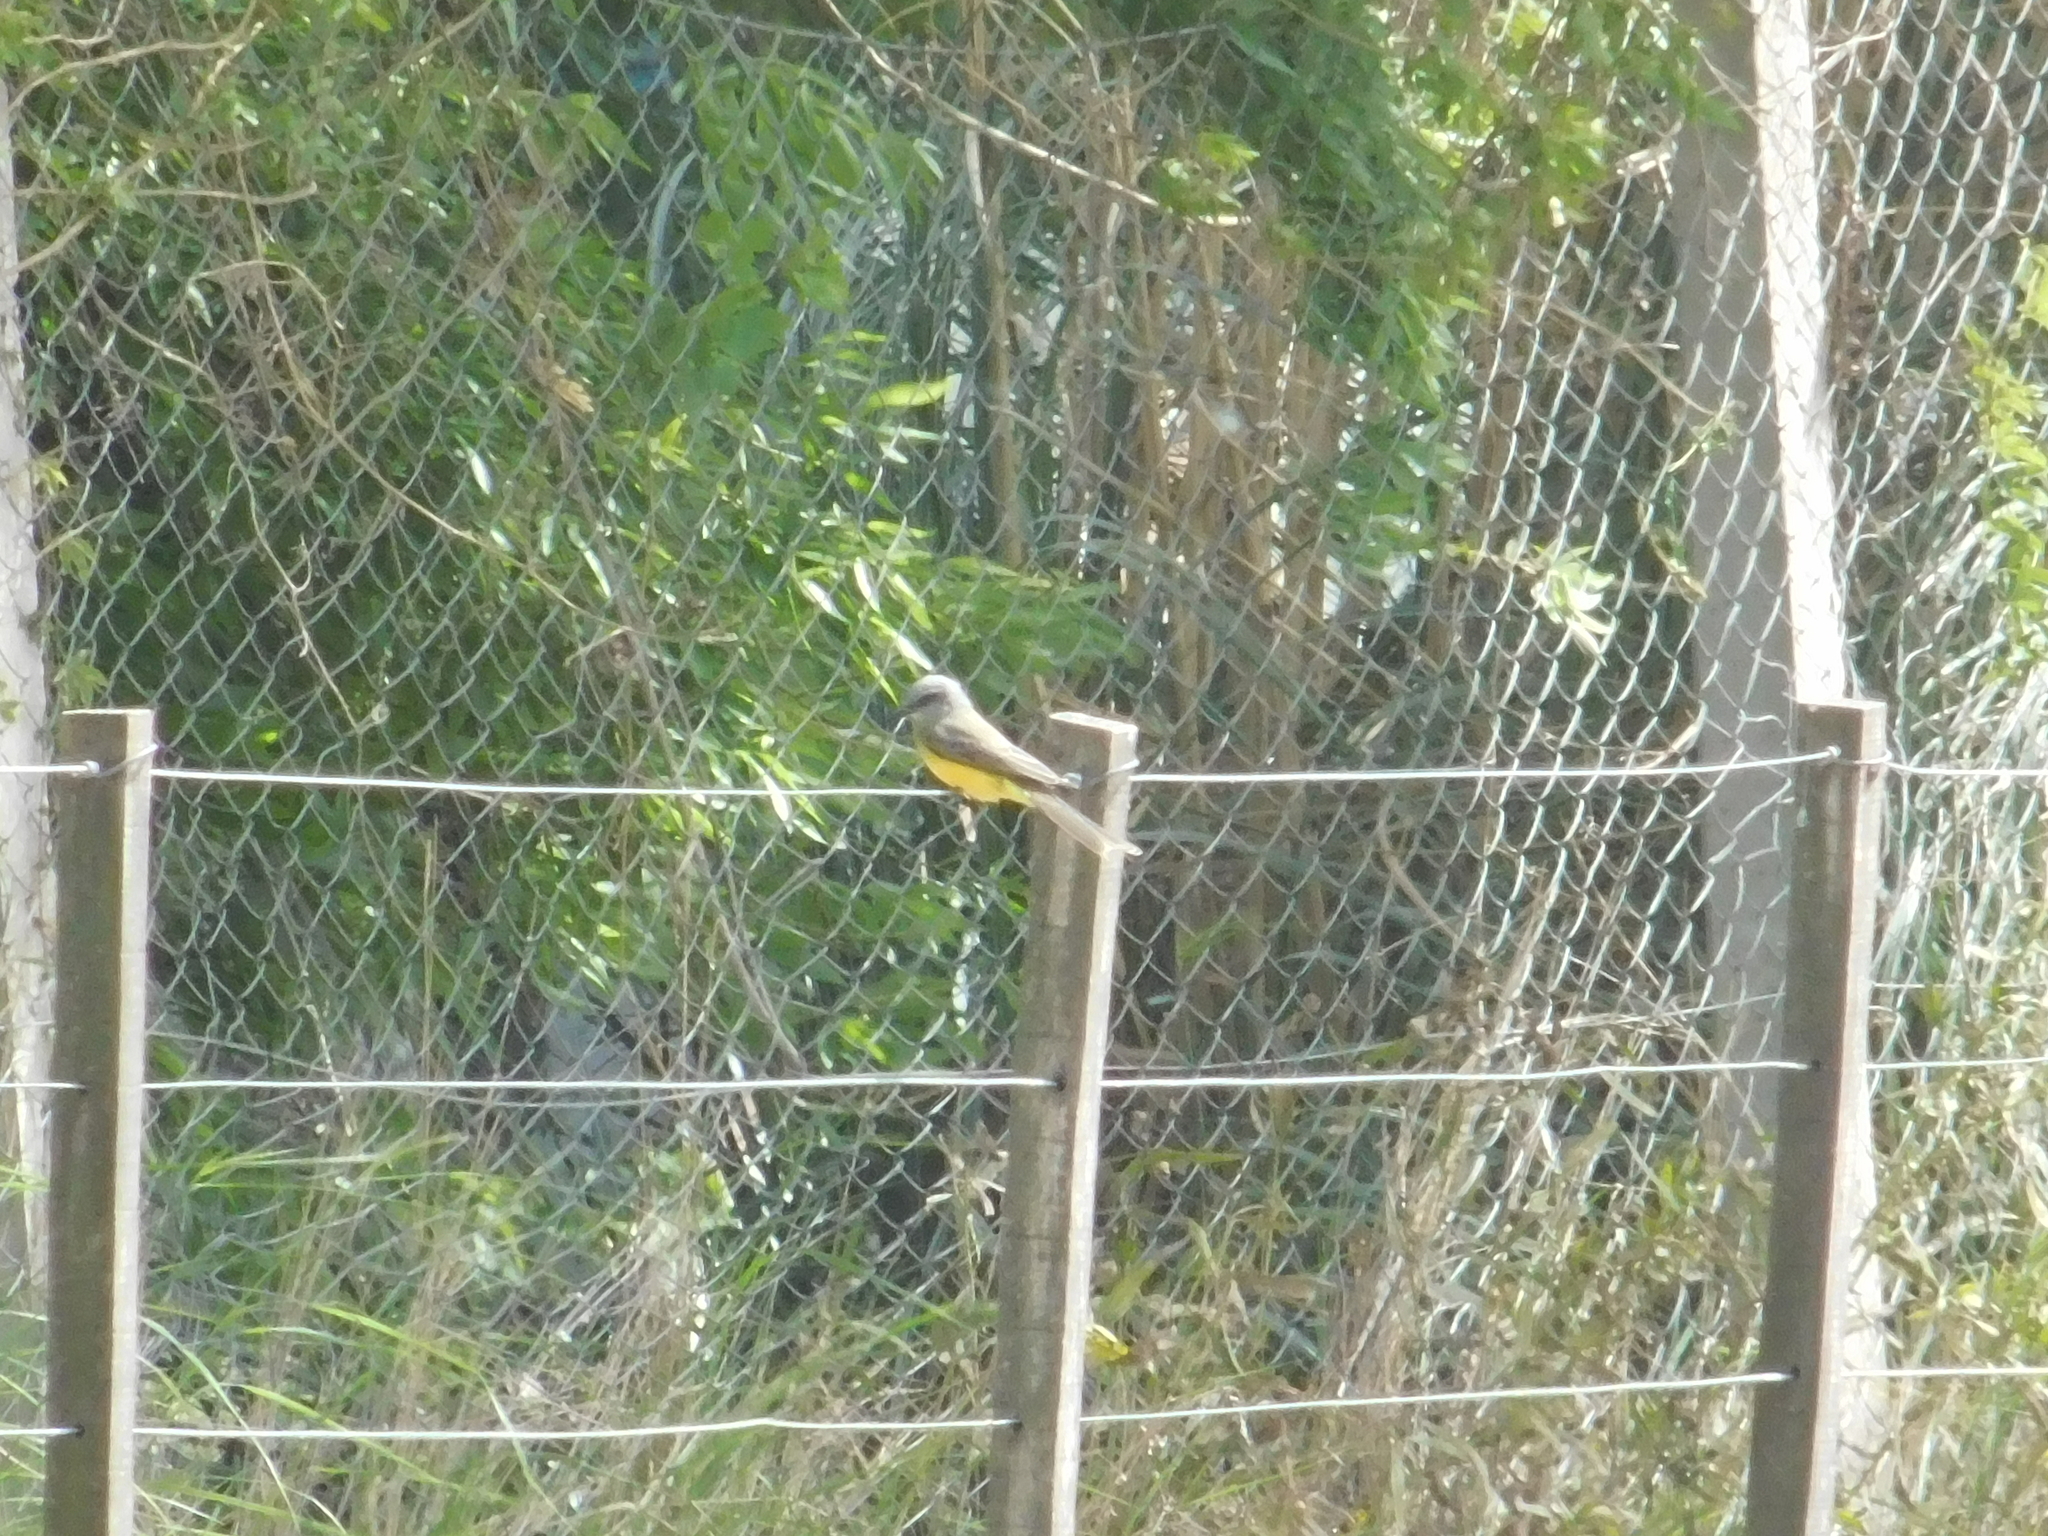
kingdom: Animalia
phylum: Chordata
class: Aves
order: Passeriformes
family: Tyrannidae
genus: Tyrannus
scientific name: Tyrannus melancholicus
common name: Tropical kingbird
